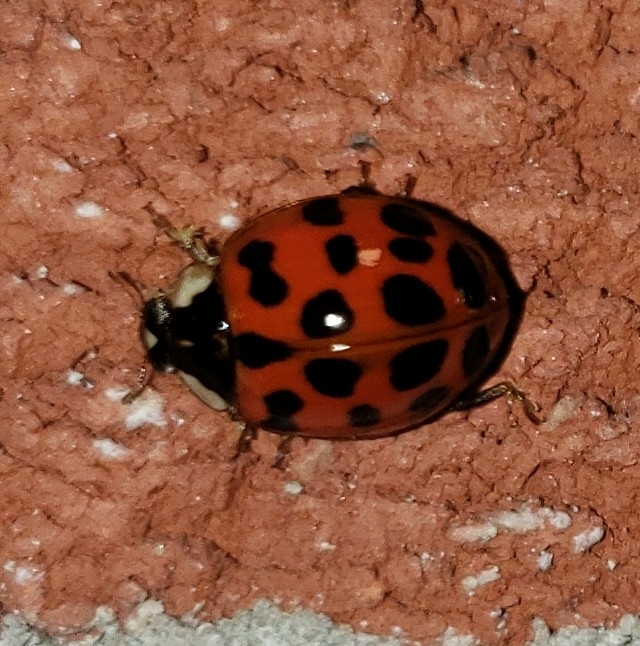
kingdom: Animalia
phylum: Arthropoda
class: Insecta
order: Coleoptera
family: Coccinellidae
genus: Harmonia
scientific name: Harmonia axyridis
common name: Harlequin ladybird
